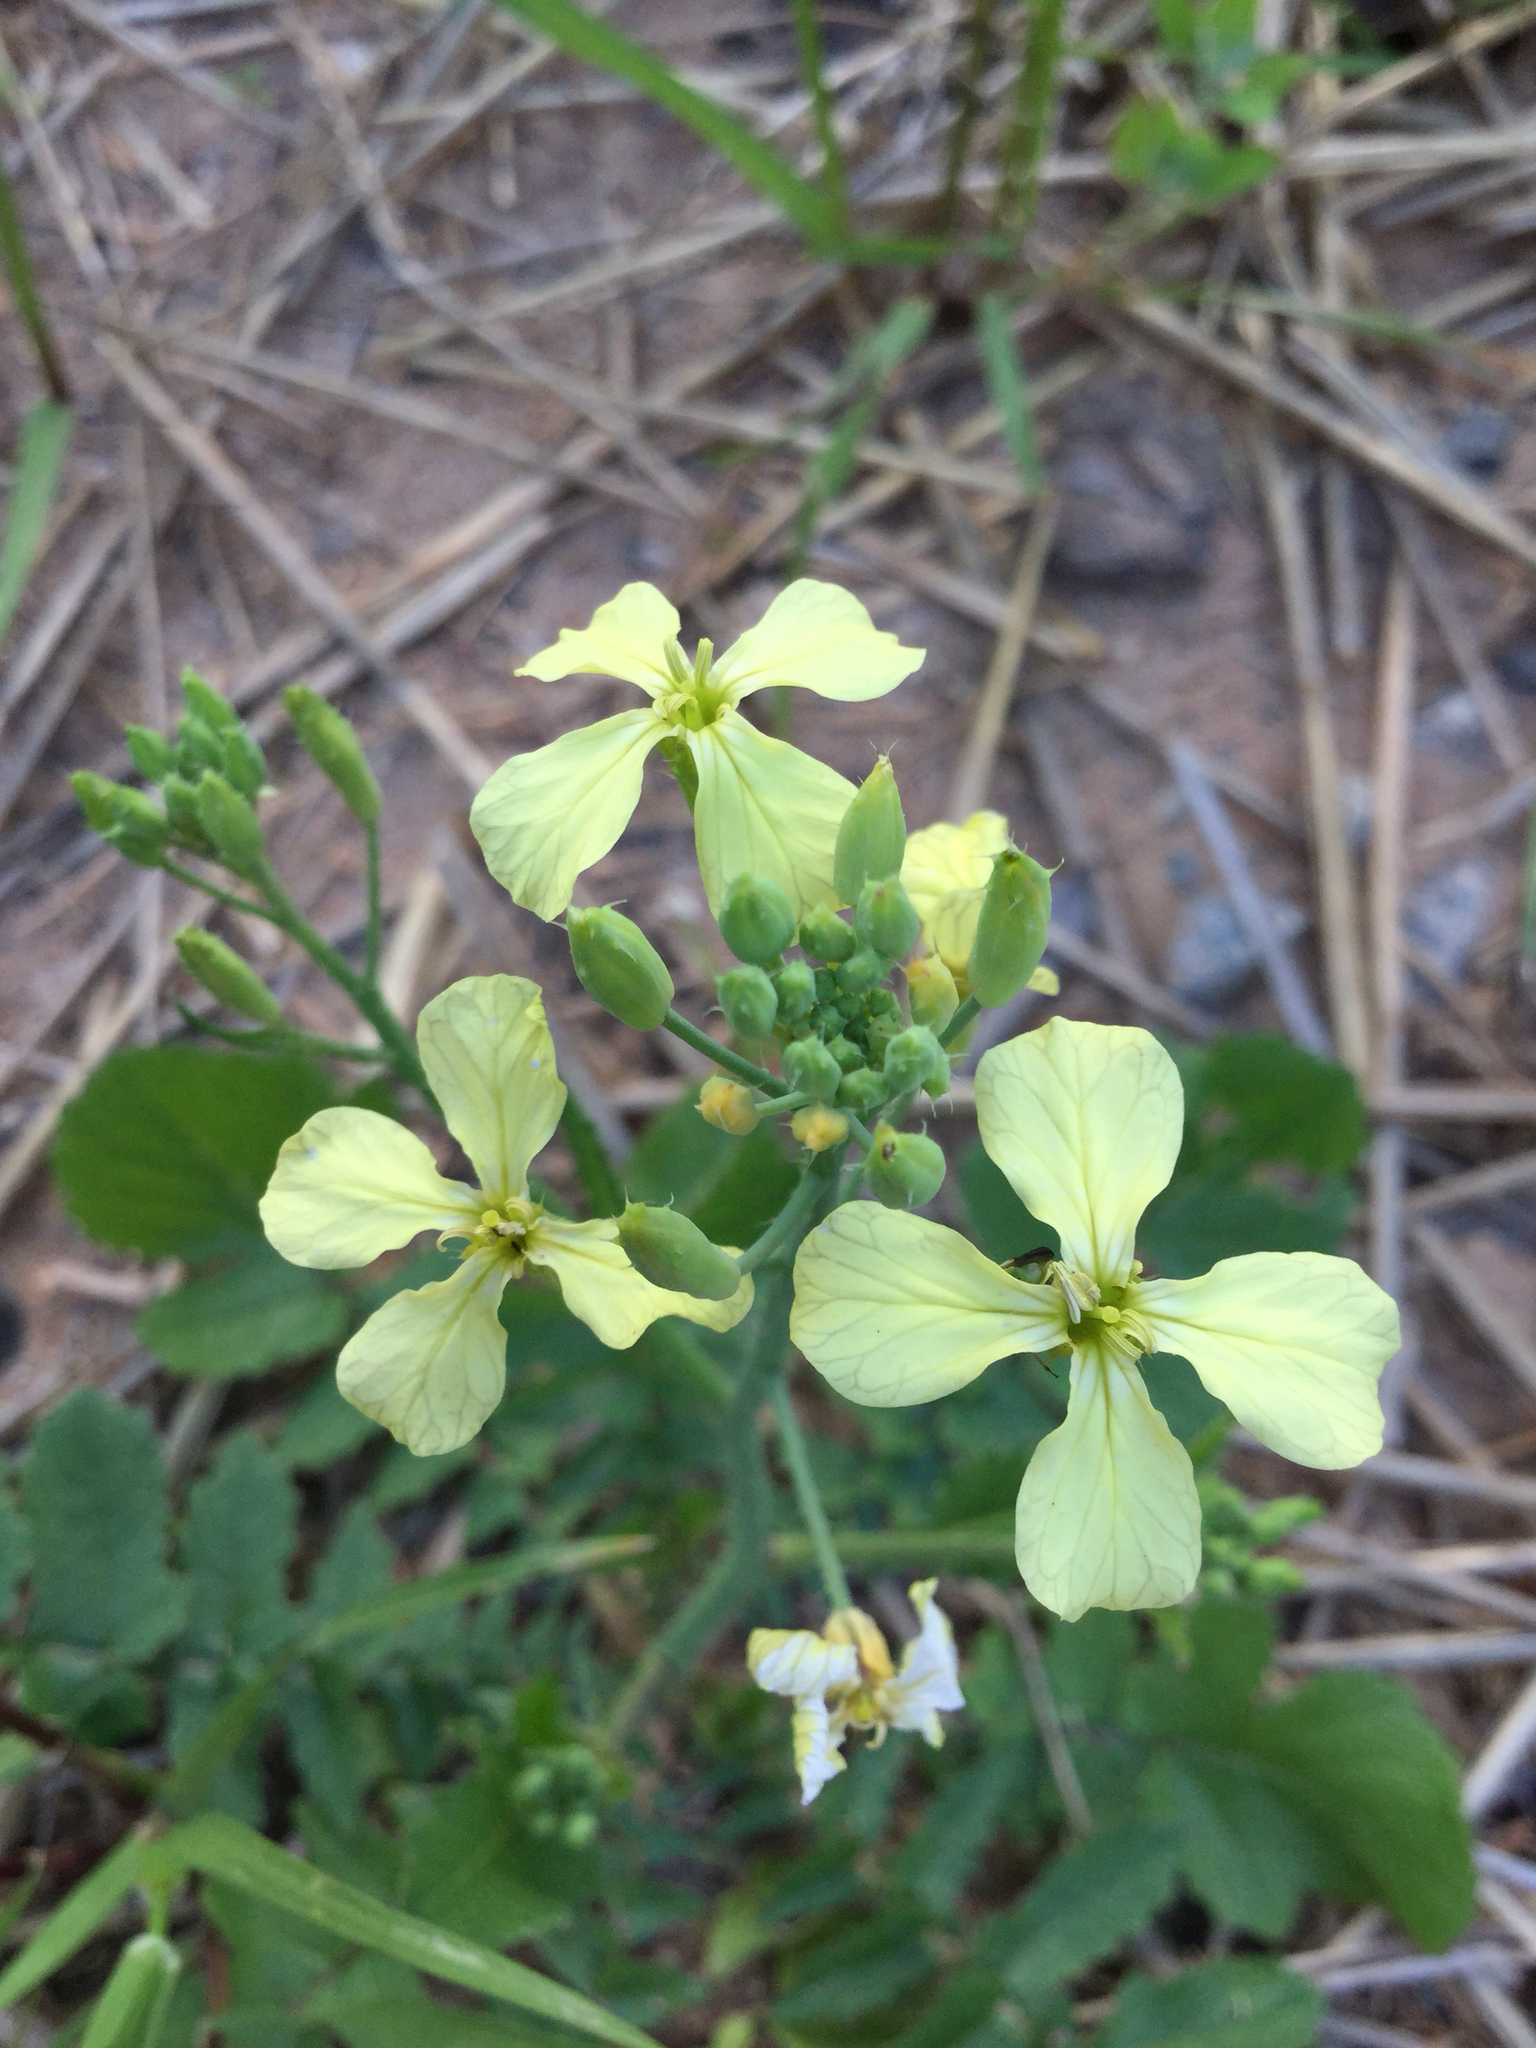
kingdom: Plantae
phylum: Tracheophyta
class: Magnoliopsida
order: Brassicales
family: Brassicaceae
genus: Raphanus
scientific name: Raphanus raphanistrum
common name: Wild radish
